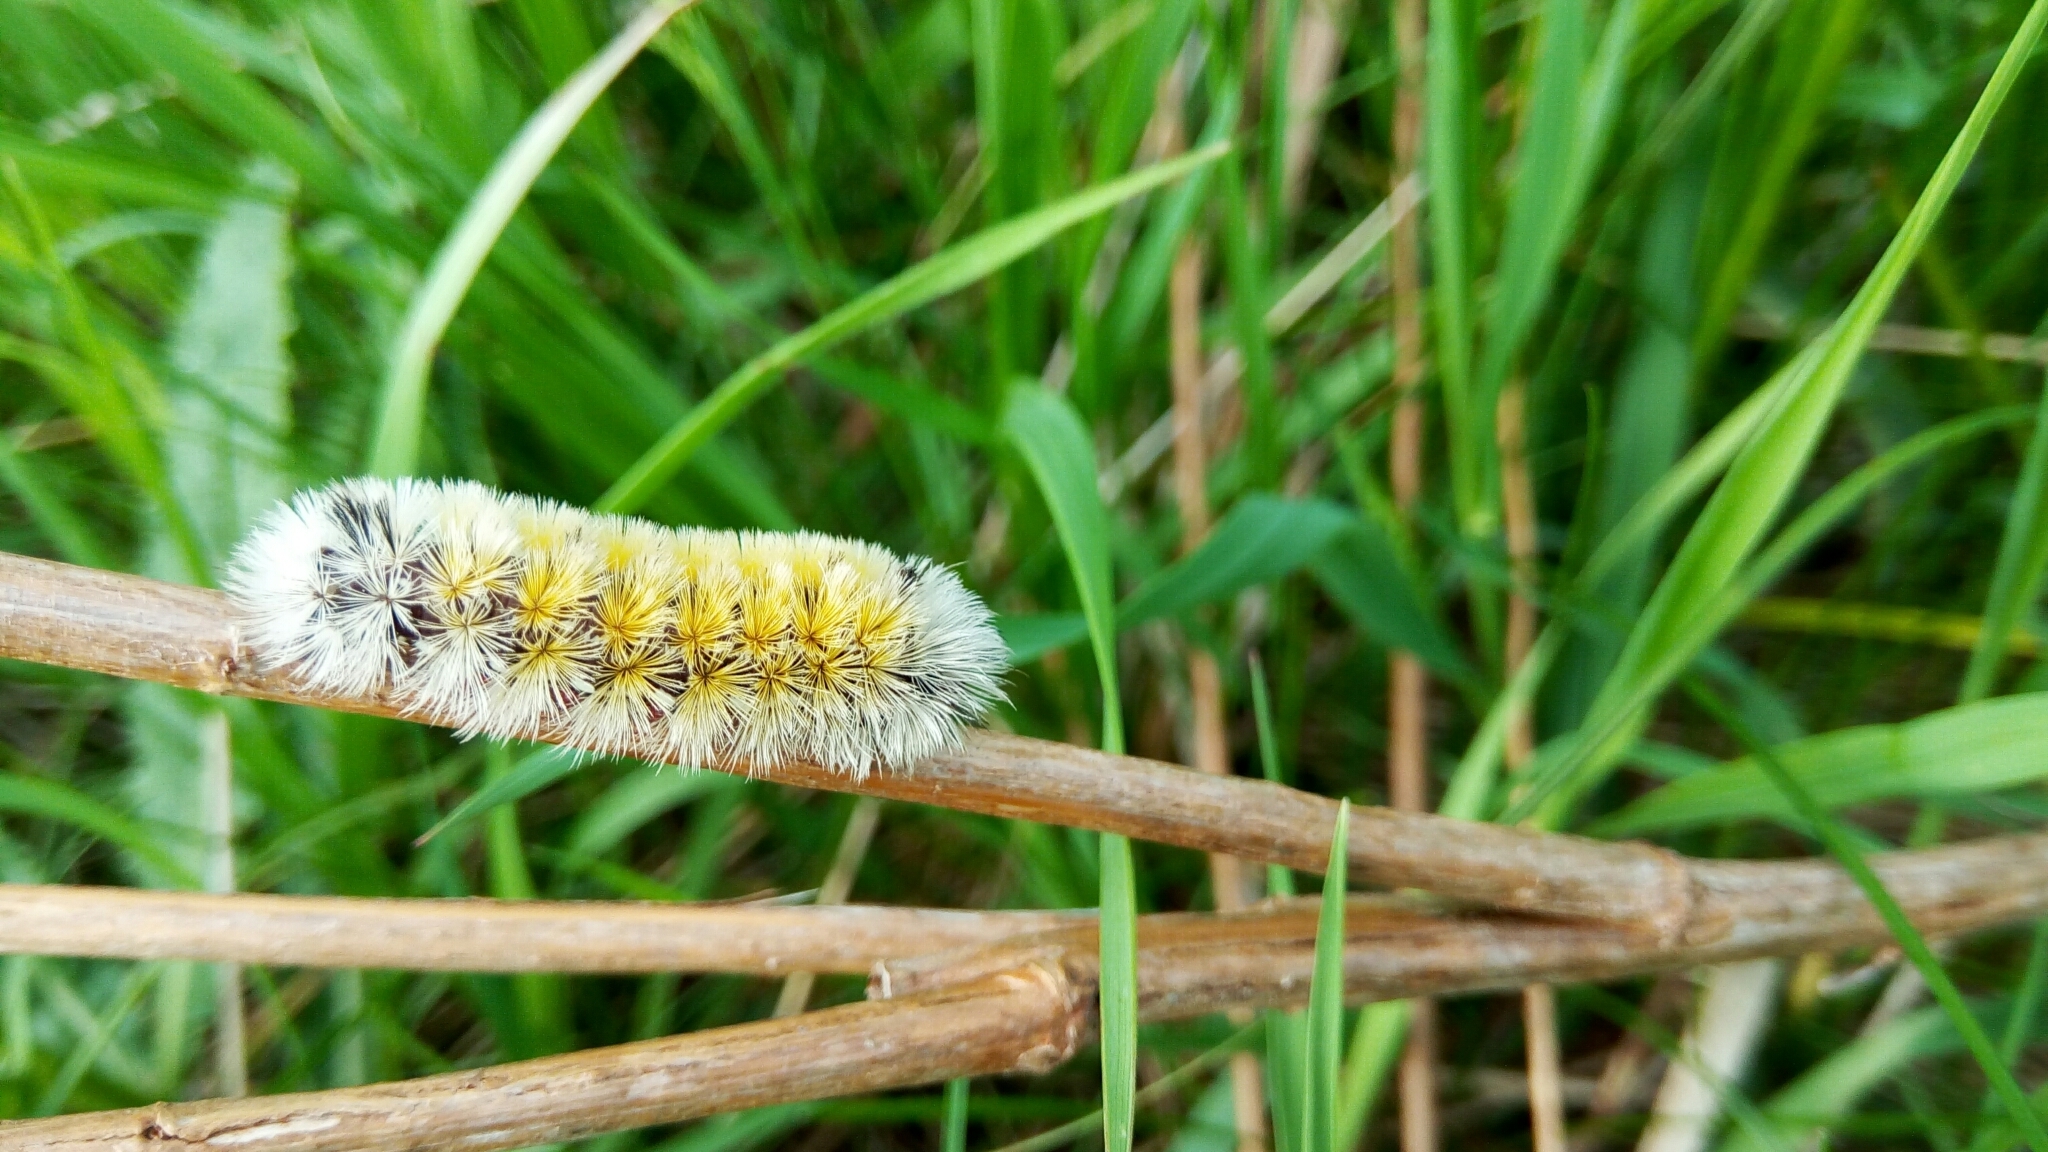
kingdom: Animalia
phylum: Arthropoda
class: Insecta
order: Lepidoptera
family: Erebidae
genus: Ctenucha
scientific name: Ctenucha virginica
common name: Virginia ctenucha moth
